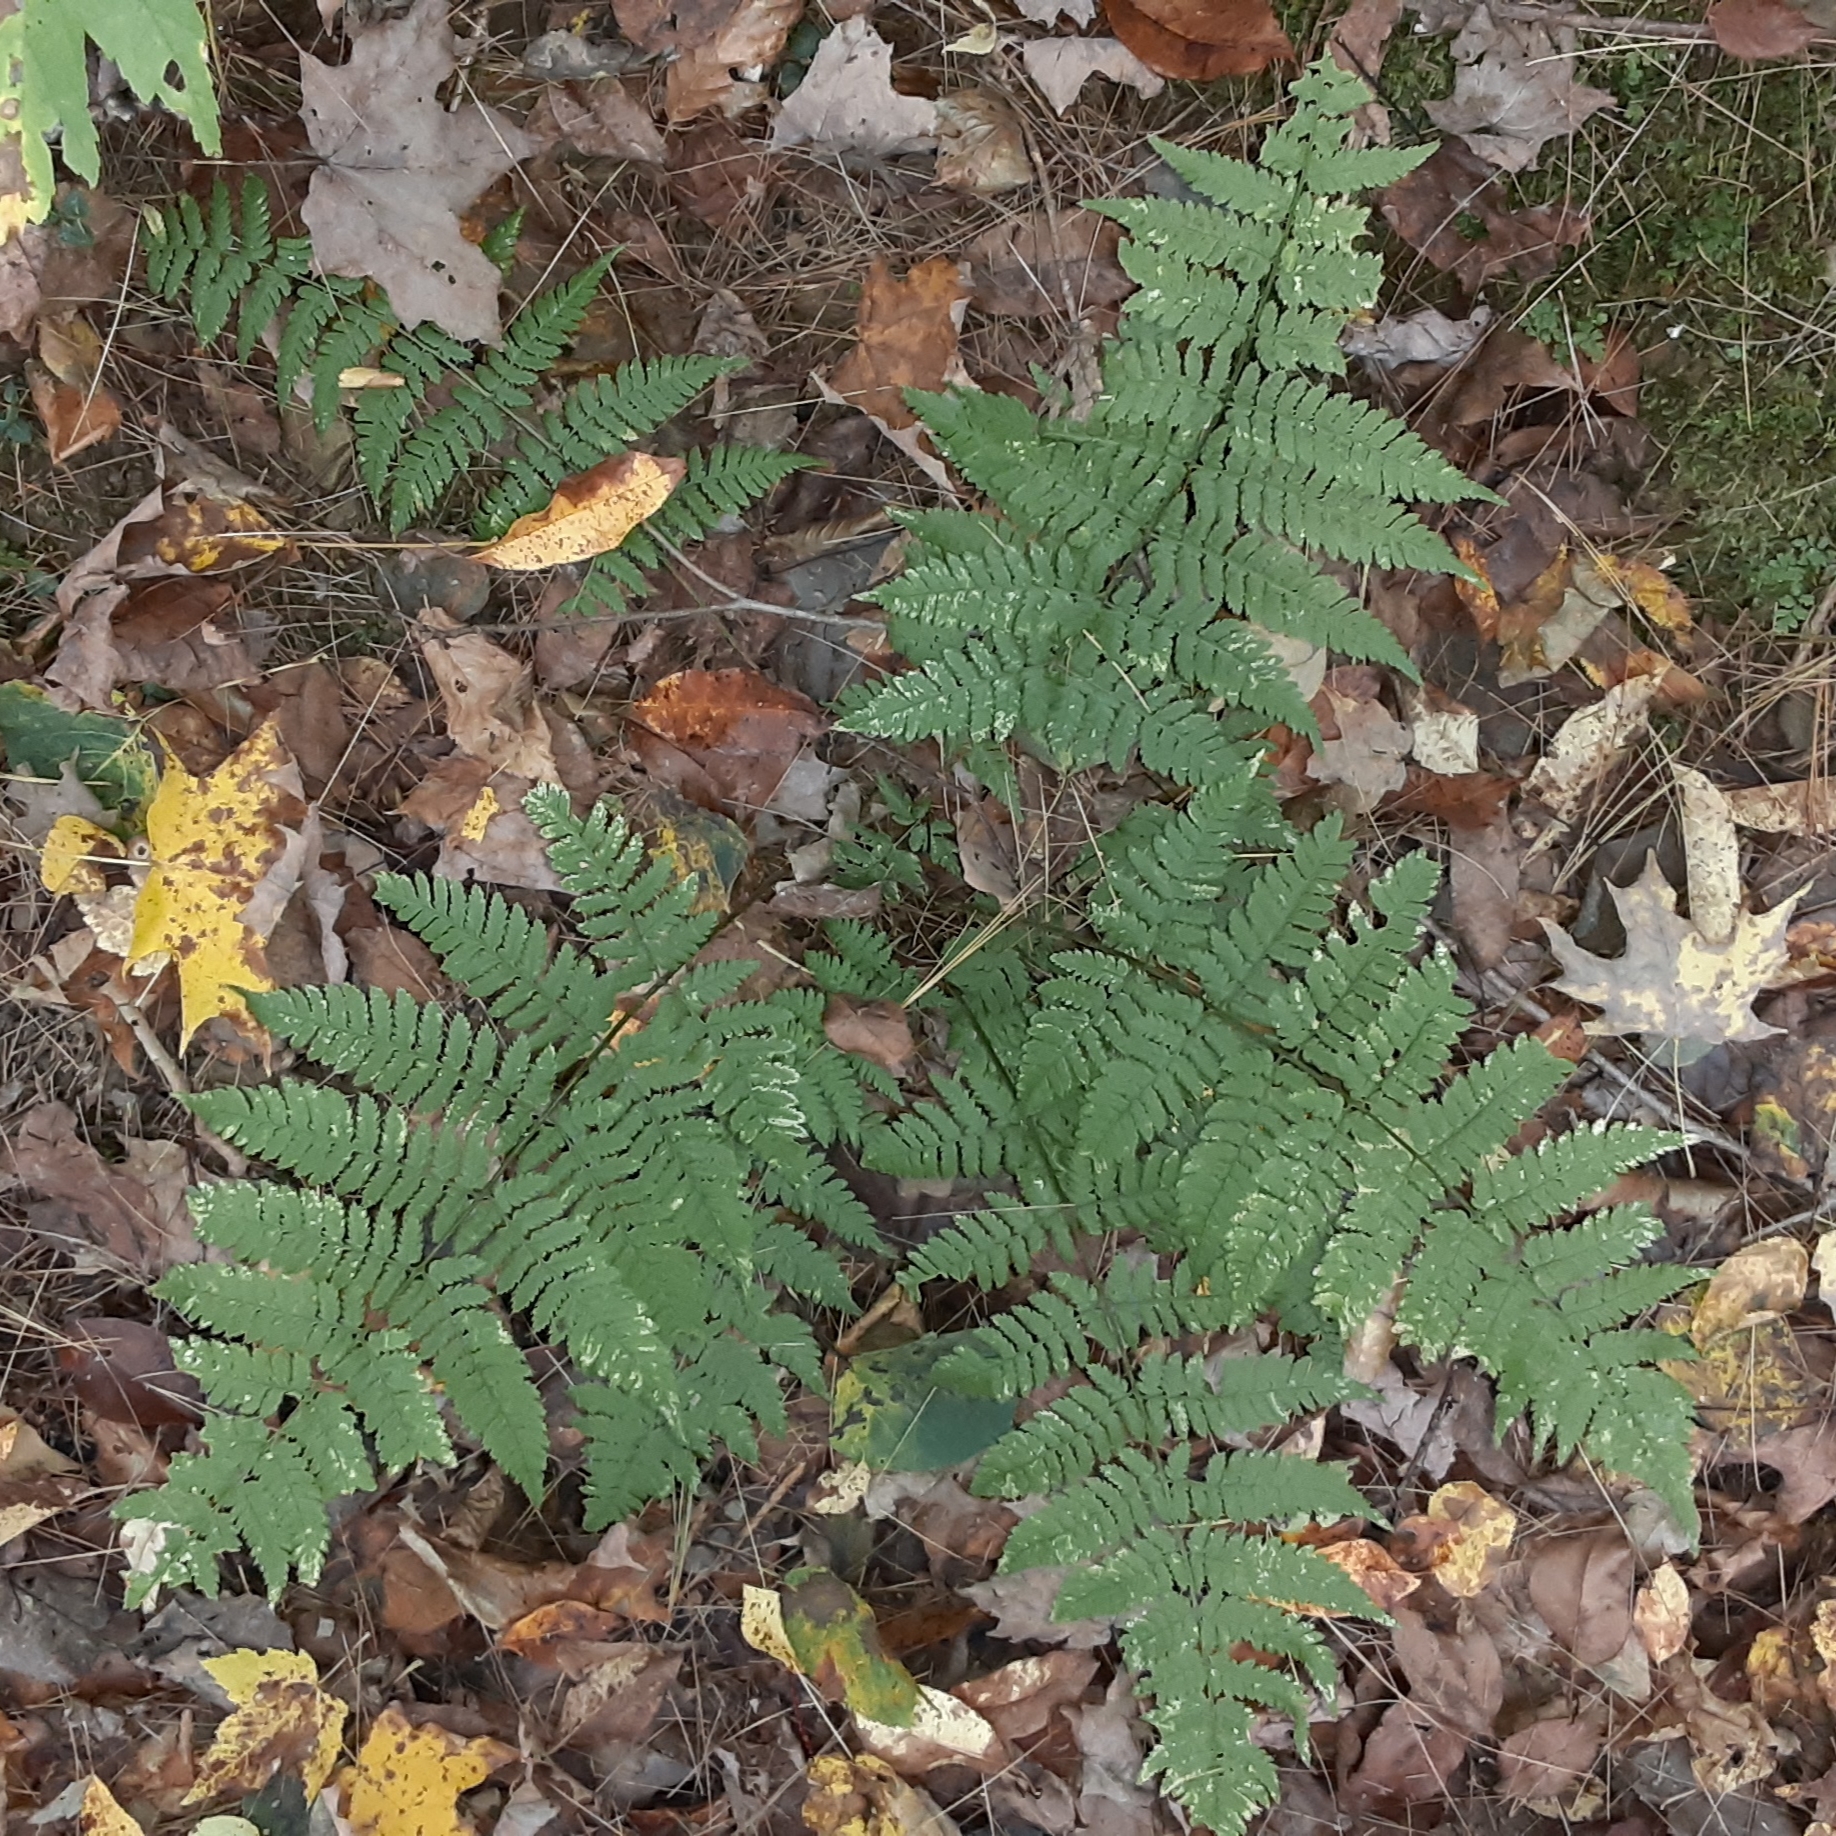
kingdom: Plantae
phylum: Tracheophyta
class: Polypodiopsida
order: Polypodiales
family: Dryopteridaceae
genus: Dryopteris
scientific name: Dryopteris intermedia
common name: Evergreen wood fern
